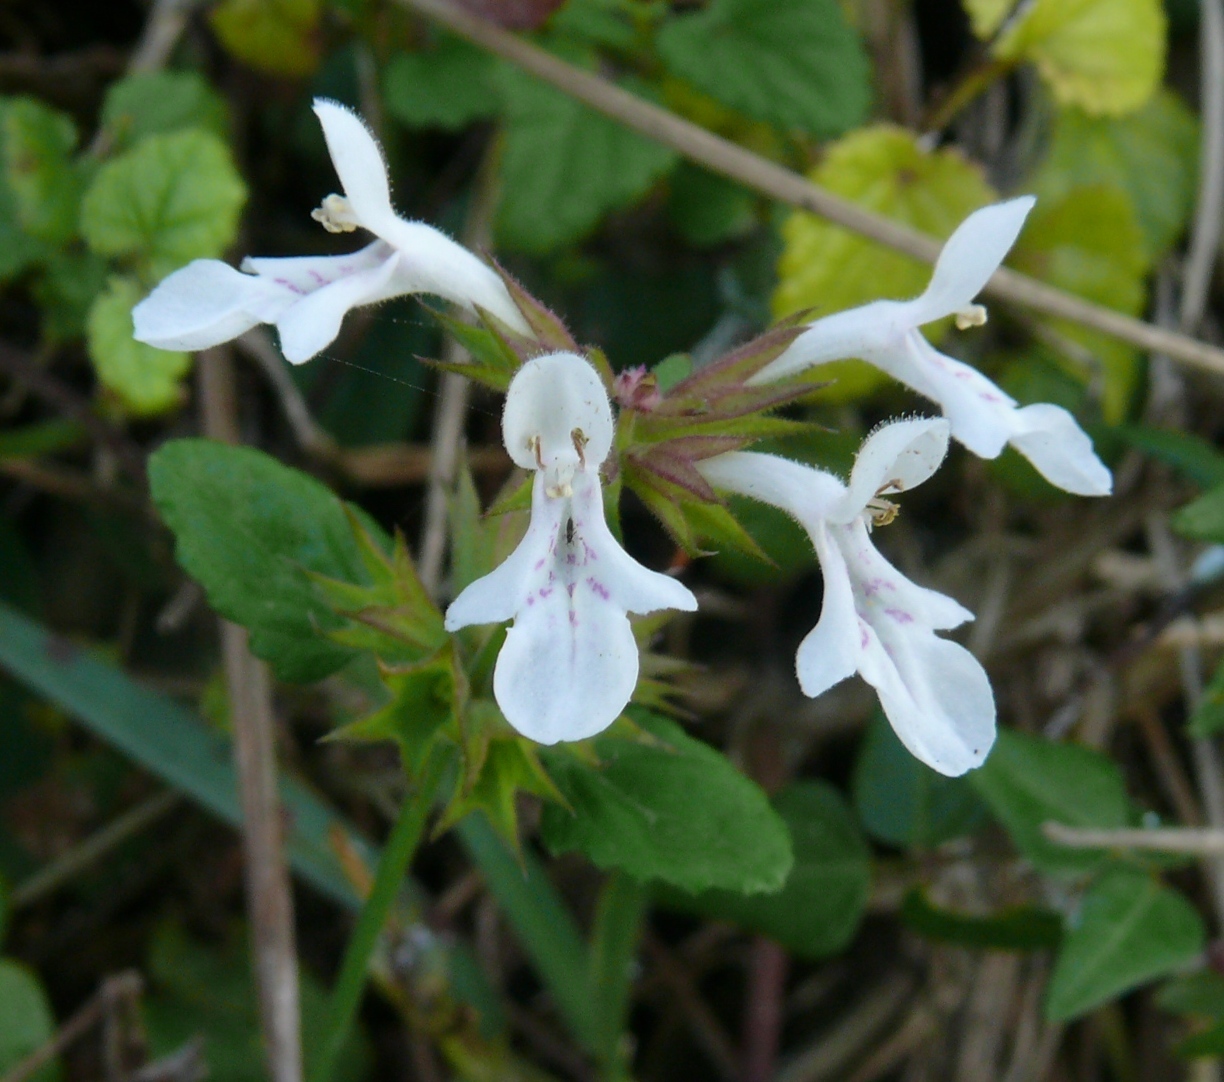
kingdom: Plantae
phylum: Tracheophyta
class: Magnoliopsida
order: Lamiales
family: Lamiaceae
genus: Stachys
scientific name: Stachys aethiopica
